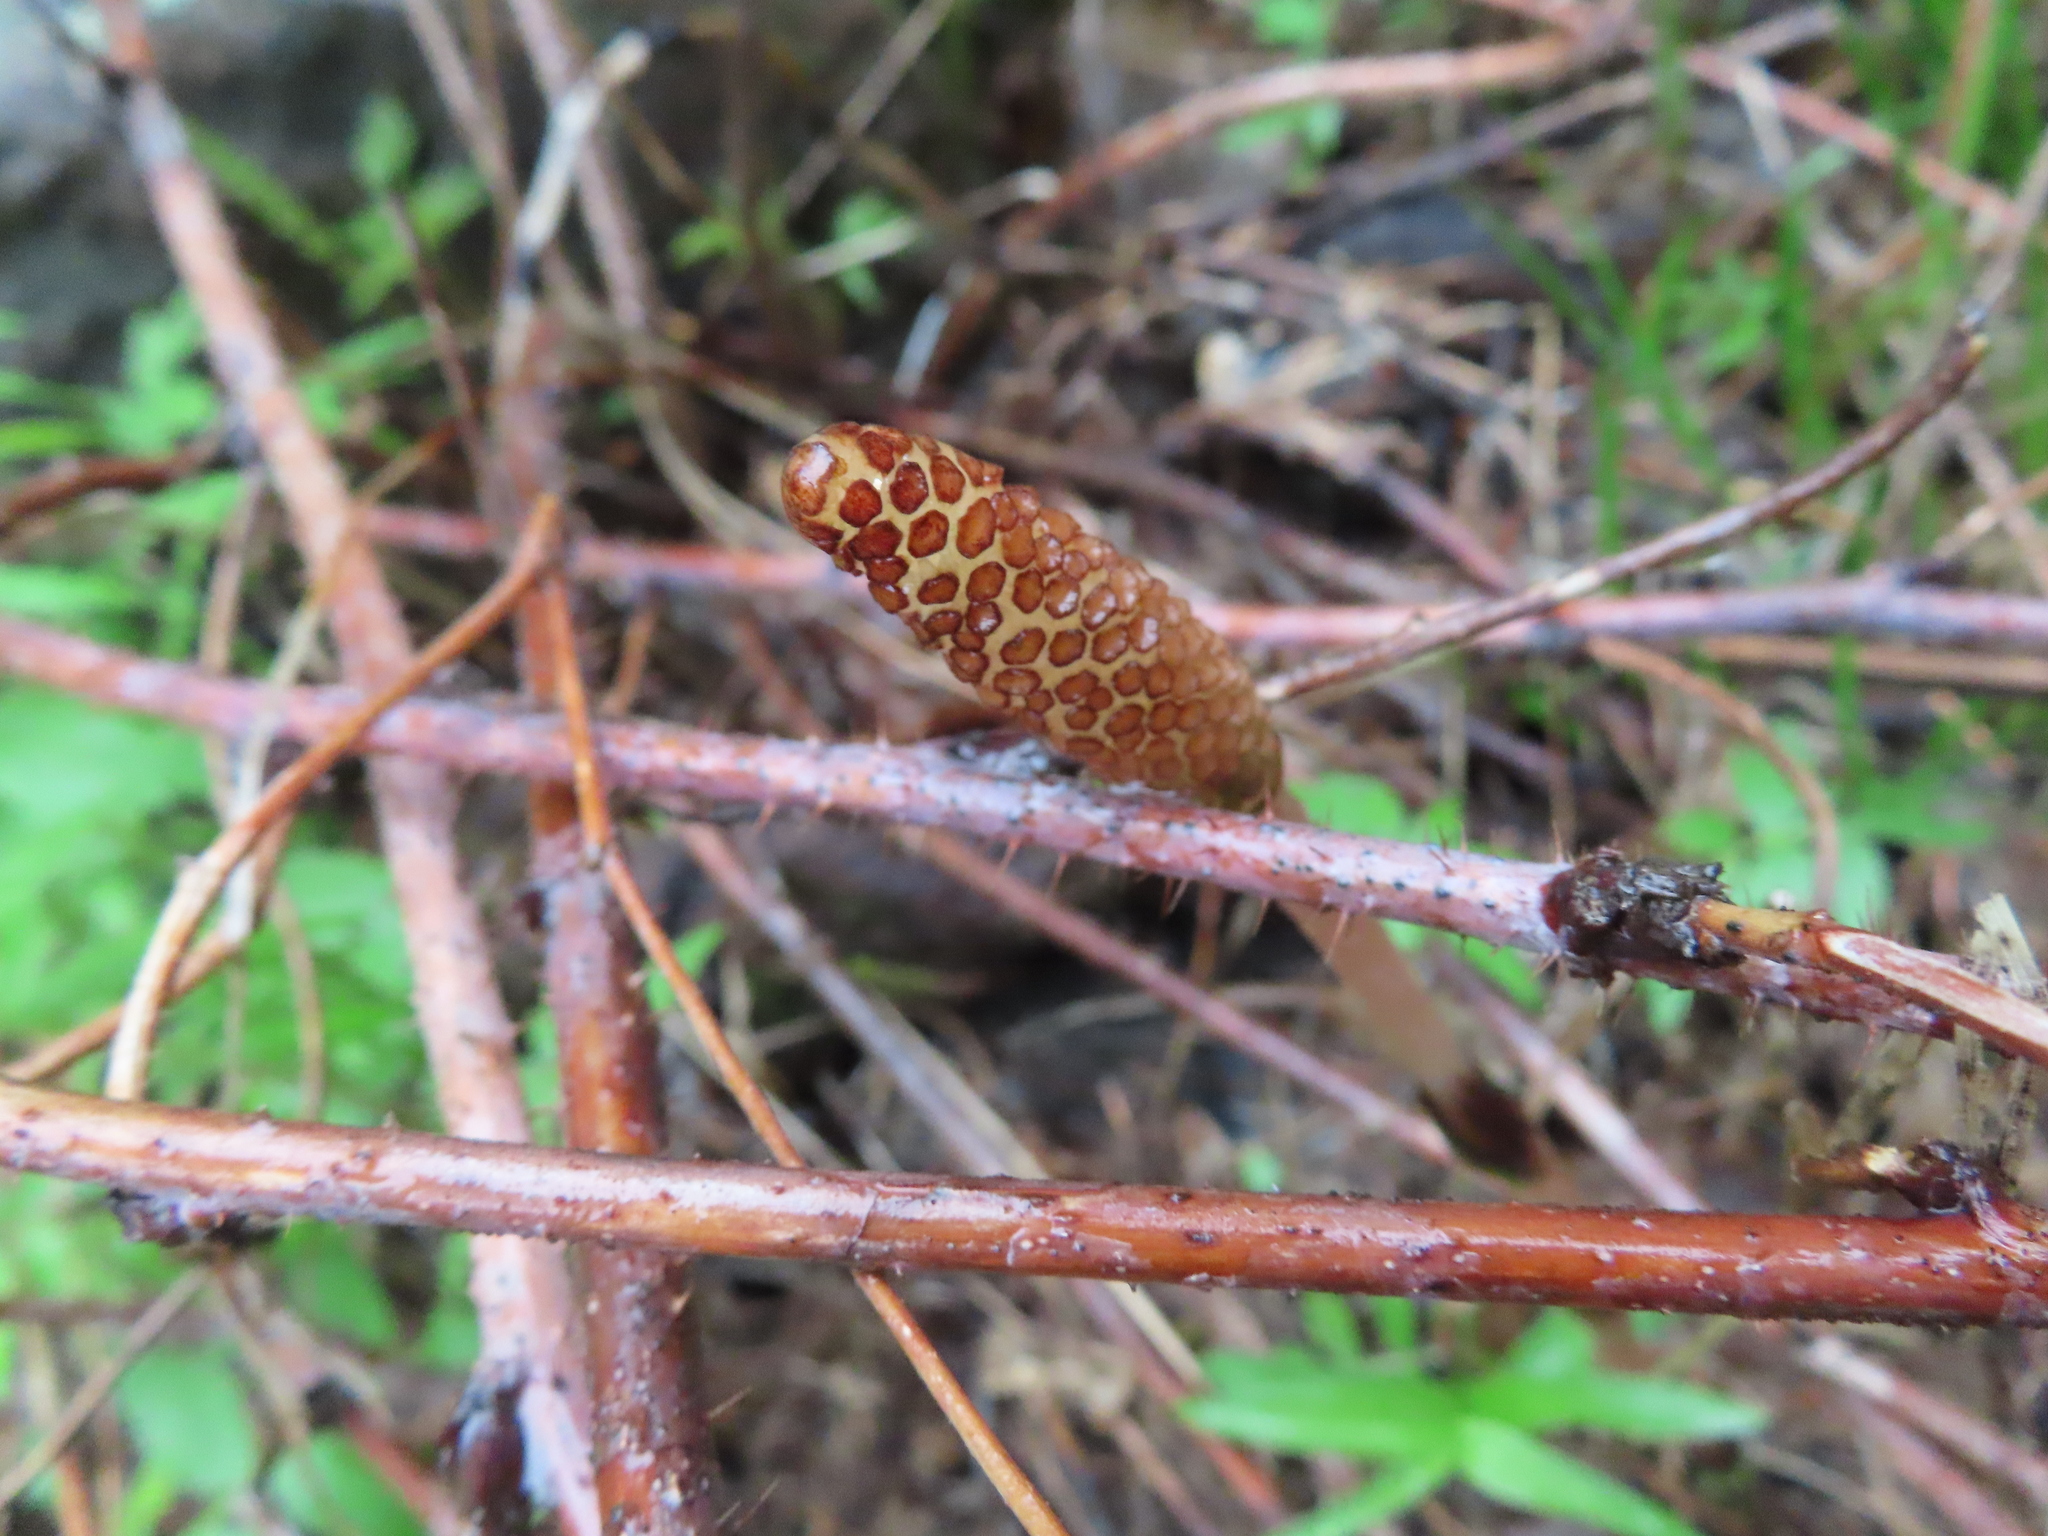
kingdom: Plantae
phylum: Tracheophyta
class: Polypodiopsida
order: Equisetales
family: Equisetaceae
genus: Equisetum
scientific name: Equisetum arvense
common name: Field horsetail
